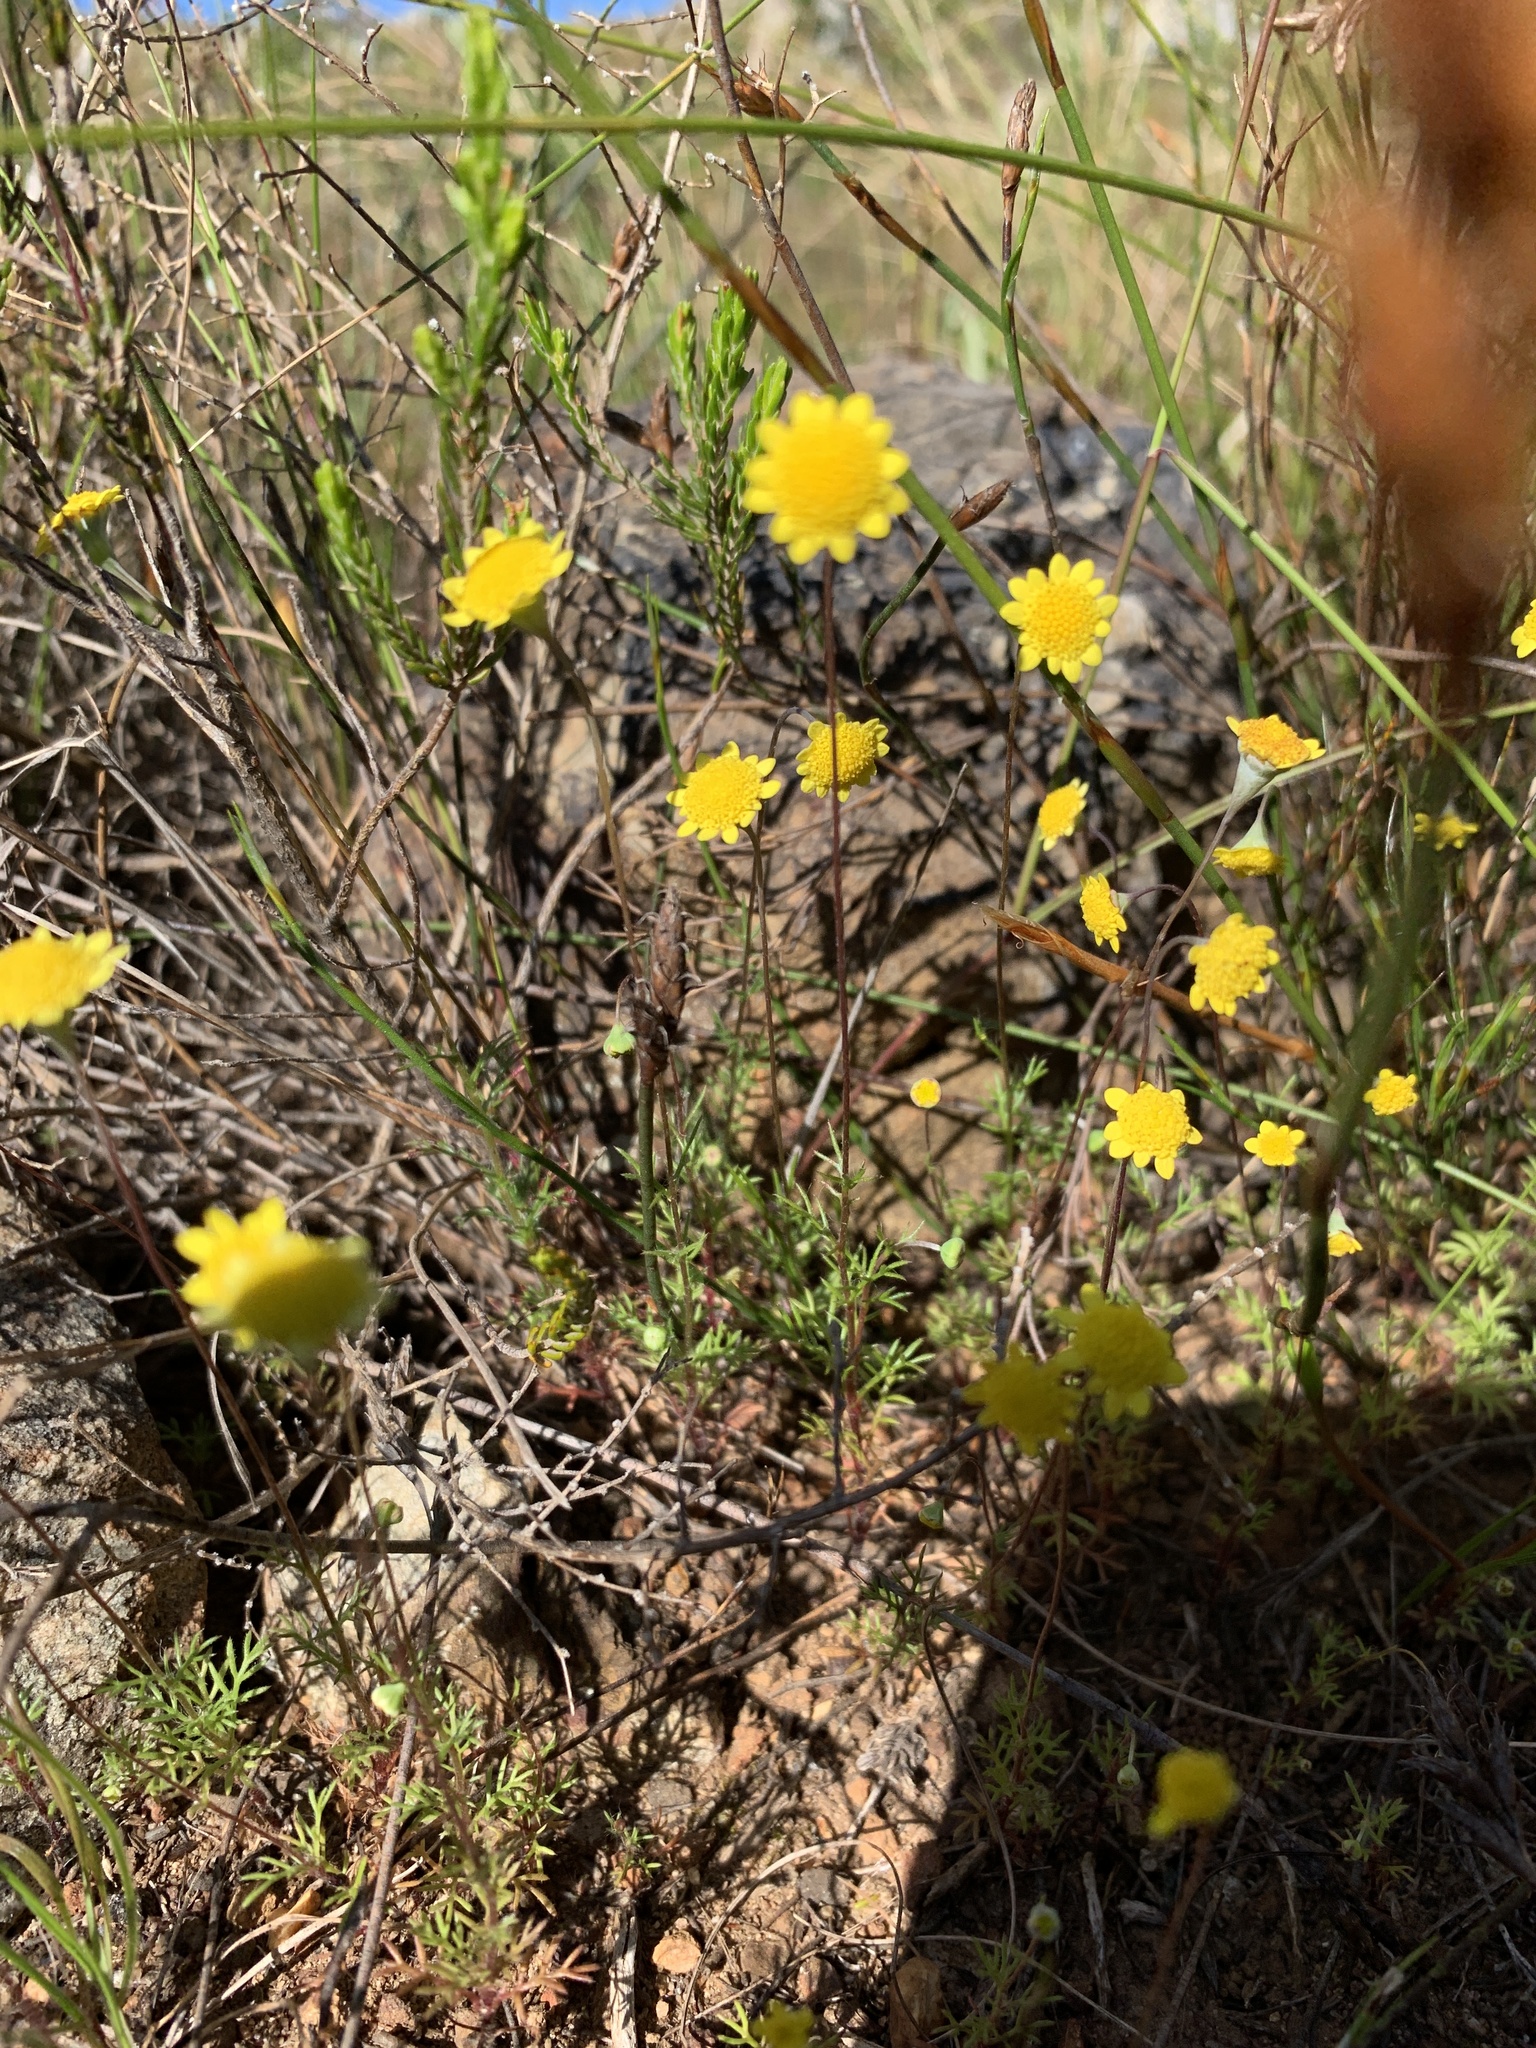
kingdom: Plantae
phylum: Tracheophyta
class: Magnoliopsida
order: Asterales
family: Asteraceae
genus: Cotula
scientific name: Cotula pruinosa
